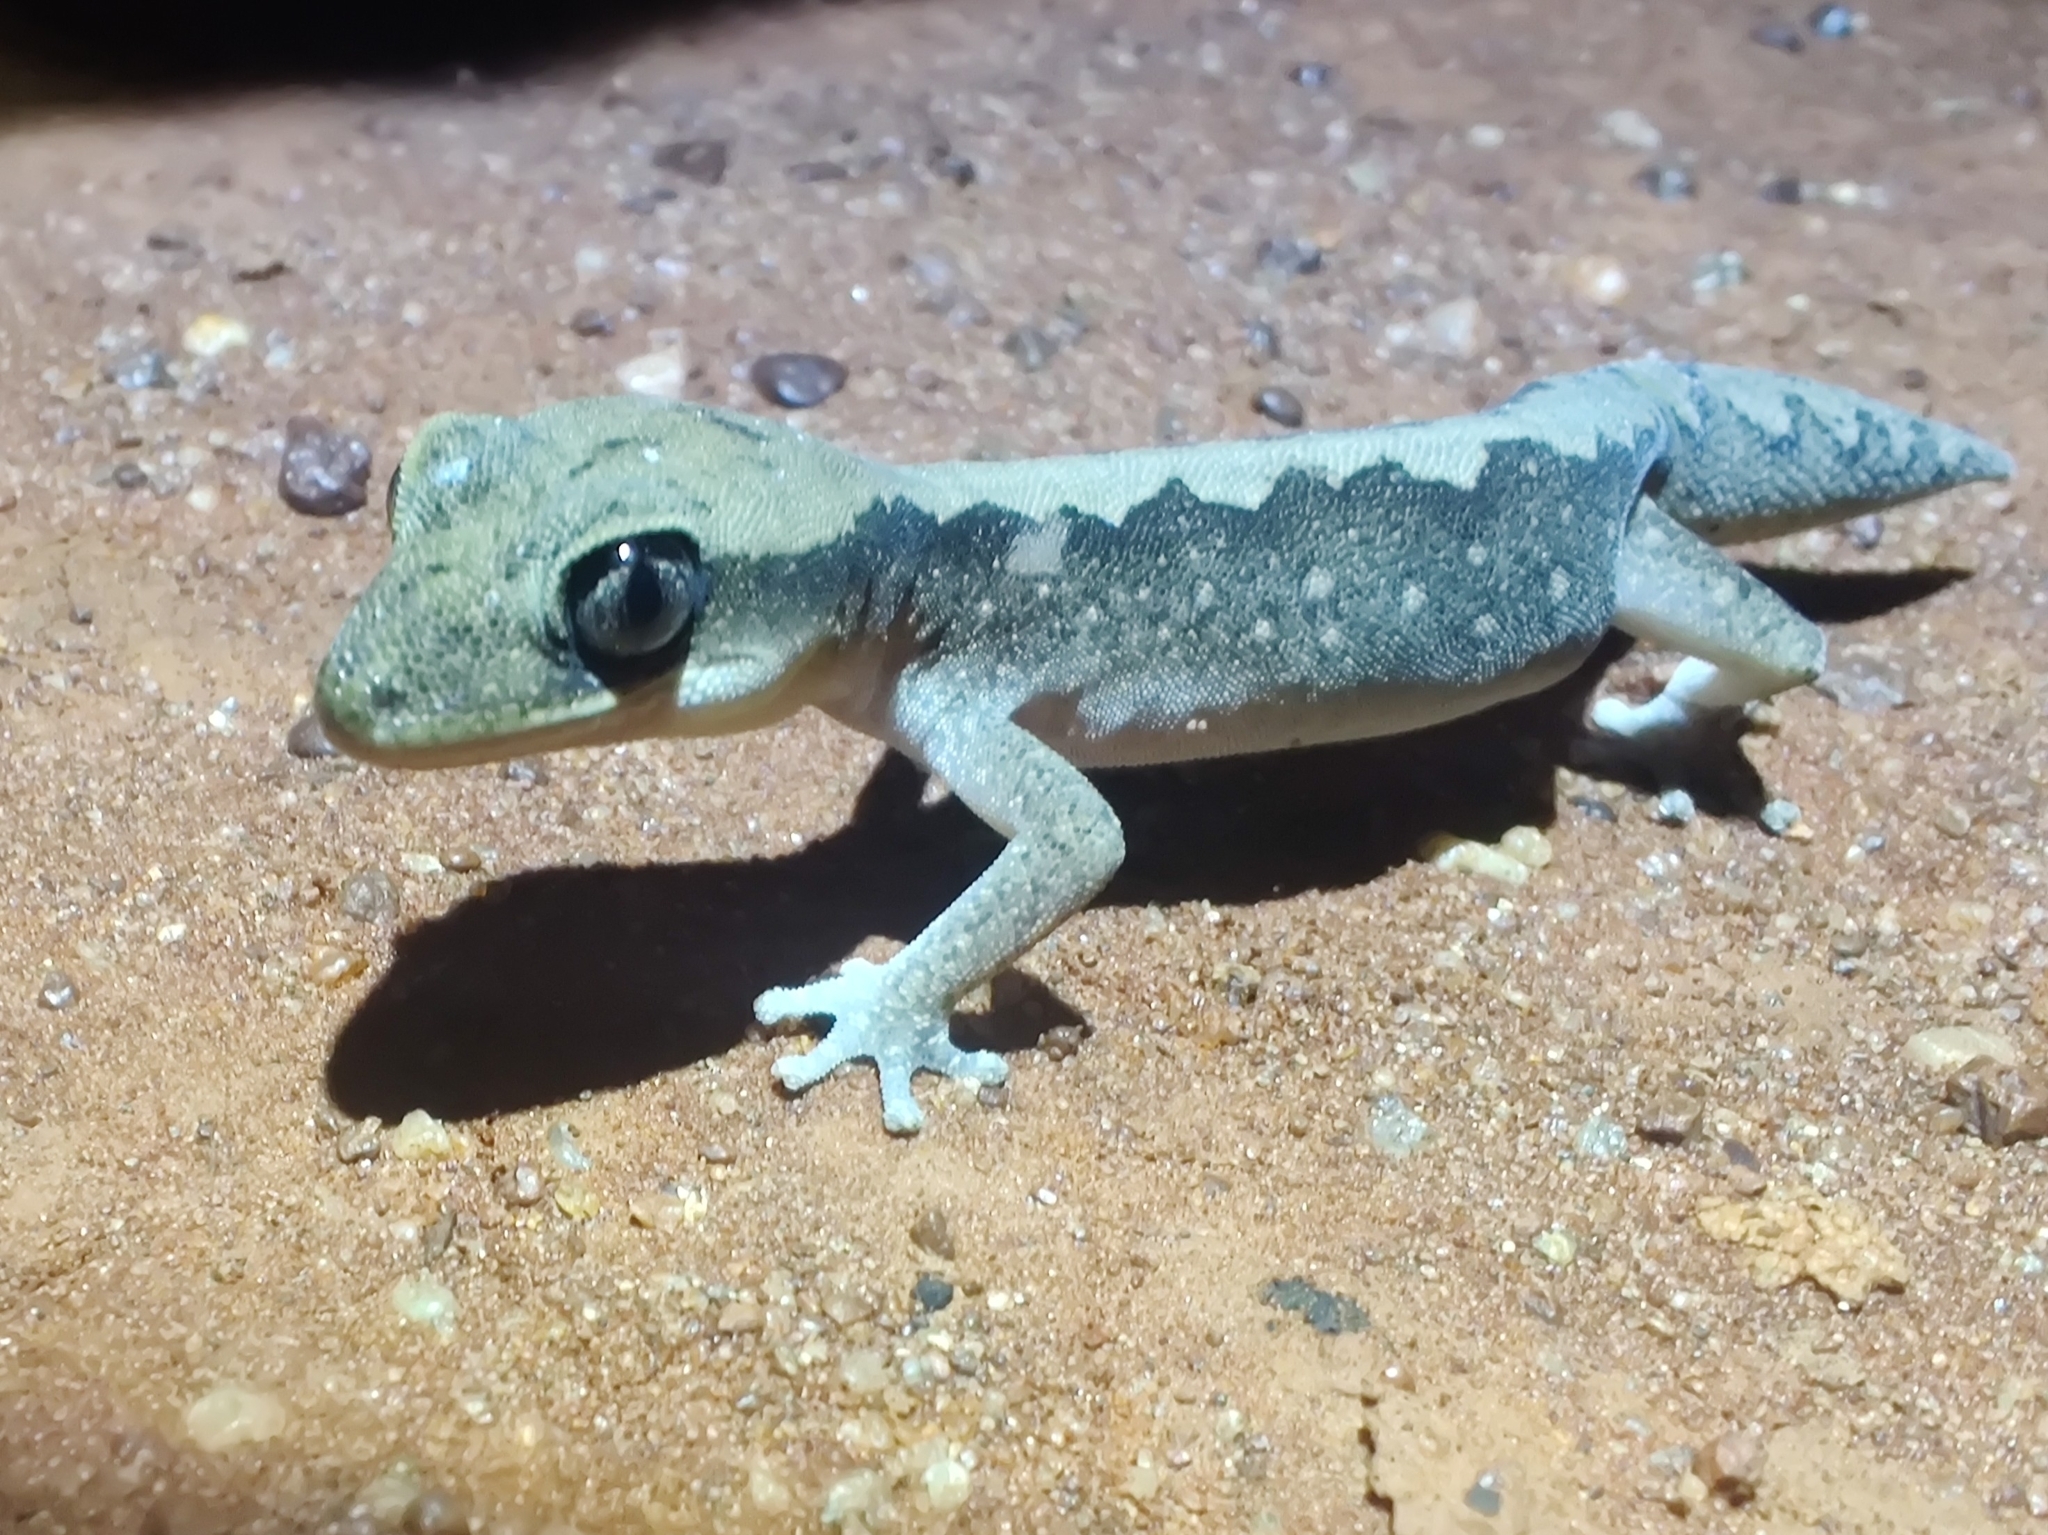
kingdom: Animalia
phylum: Chordata
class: Squamata
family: Diplodactylidae
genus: Diplodactylus
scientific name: Diplodactylus vittatus
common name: Eastern stone gecko
